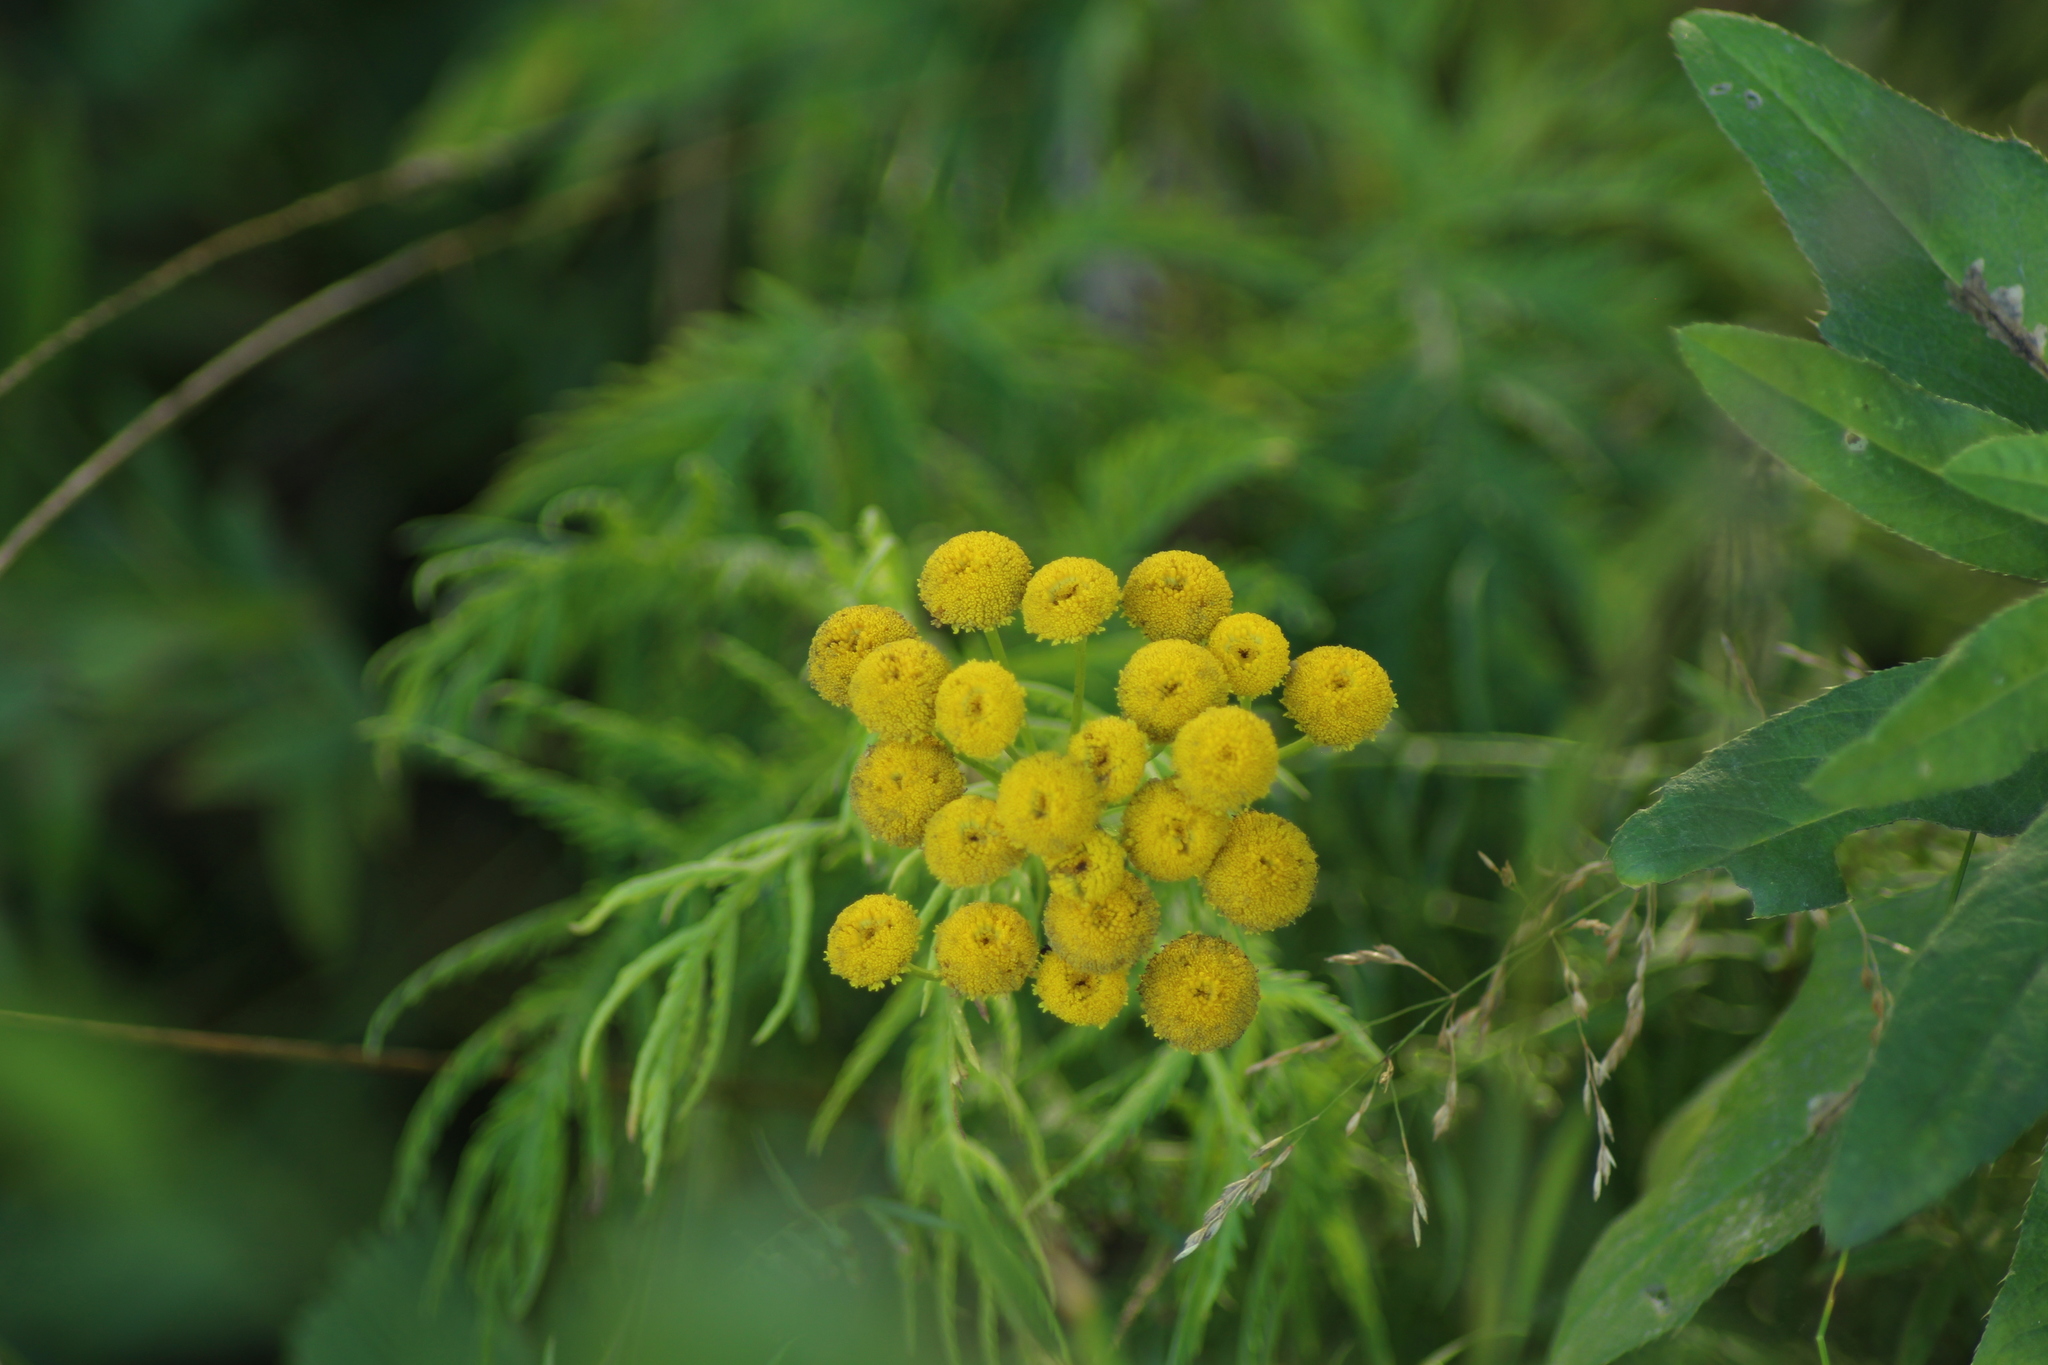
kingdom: Plantae
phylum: Tracheophyta
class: Magnoliopsida
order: Asterales
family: Asteraceae
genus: Tanacetum
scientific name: Tanacetum vulgare
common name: Common tansy
